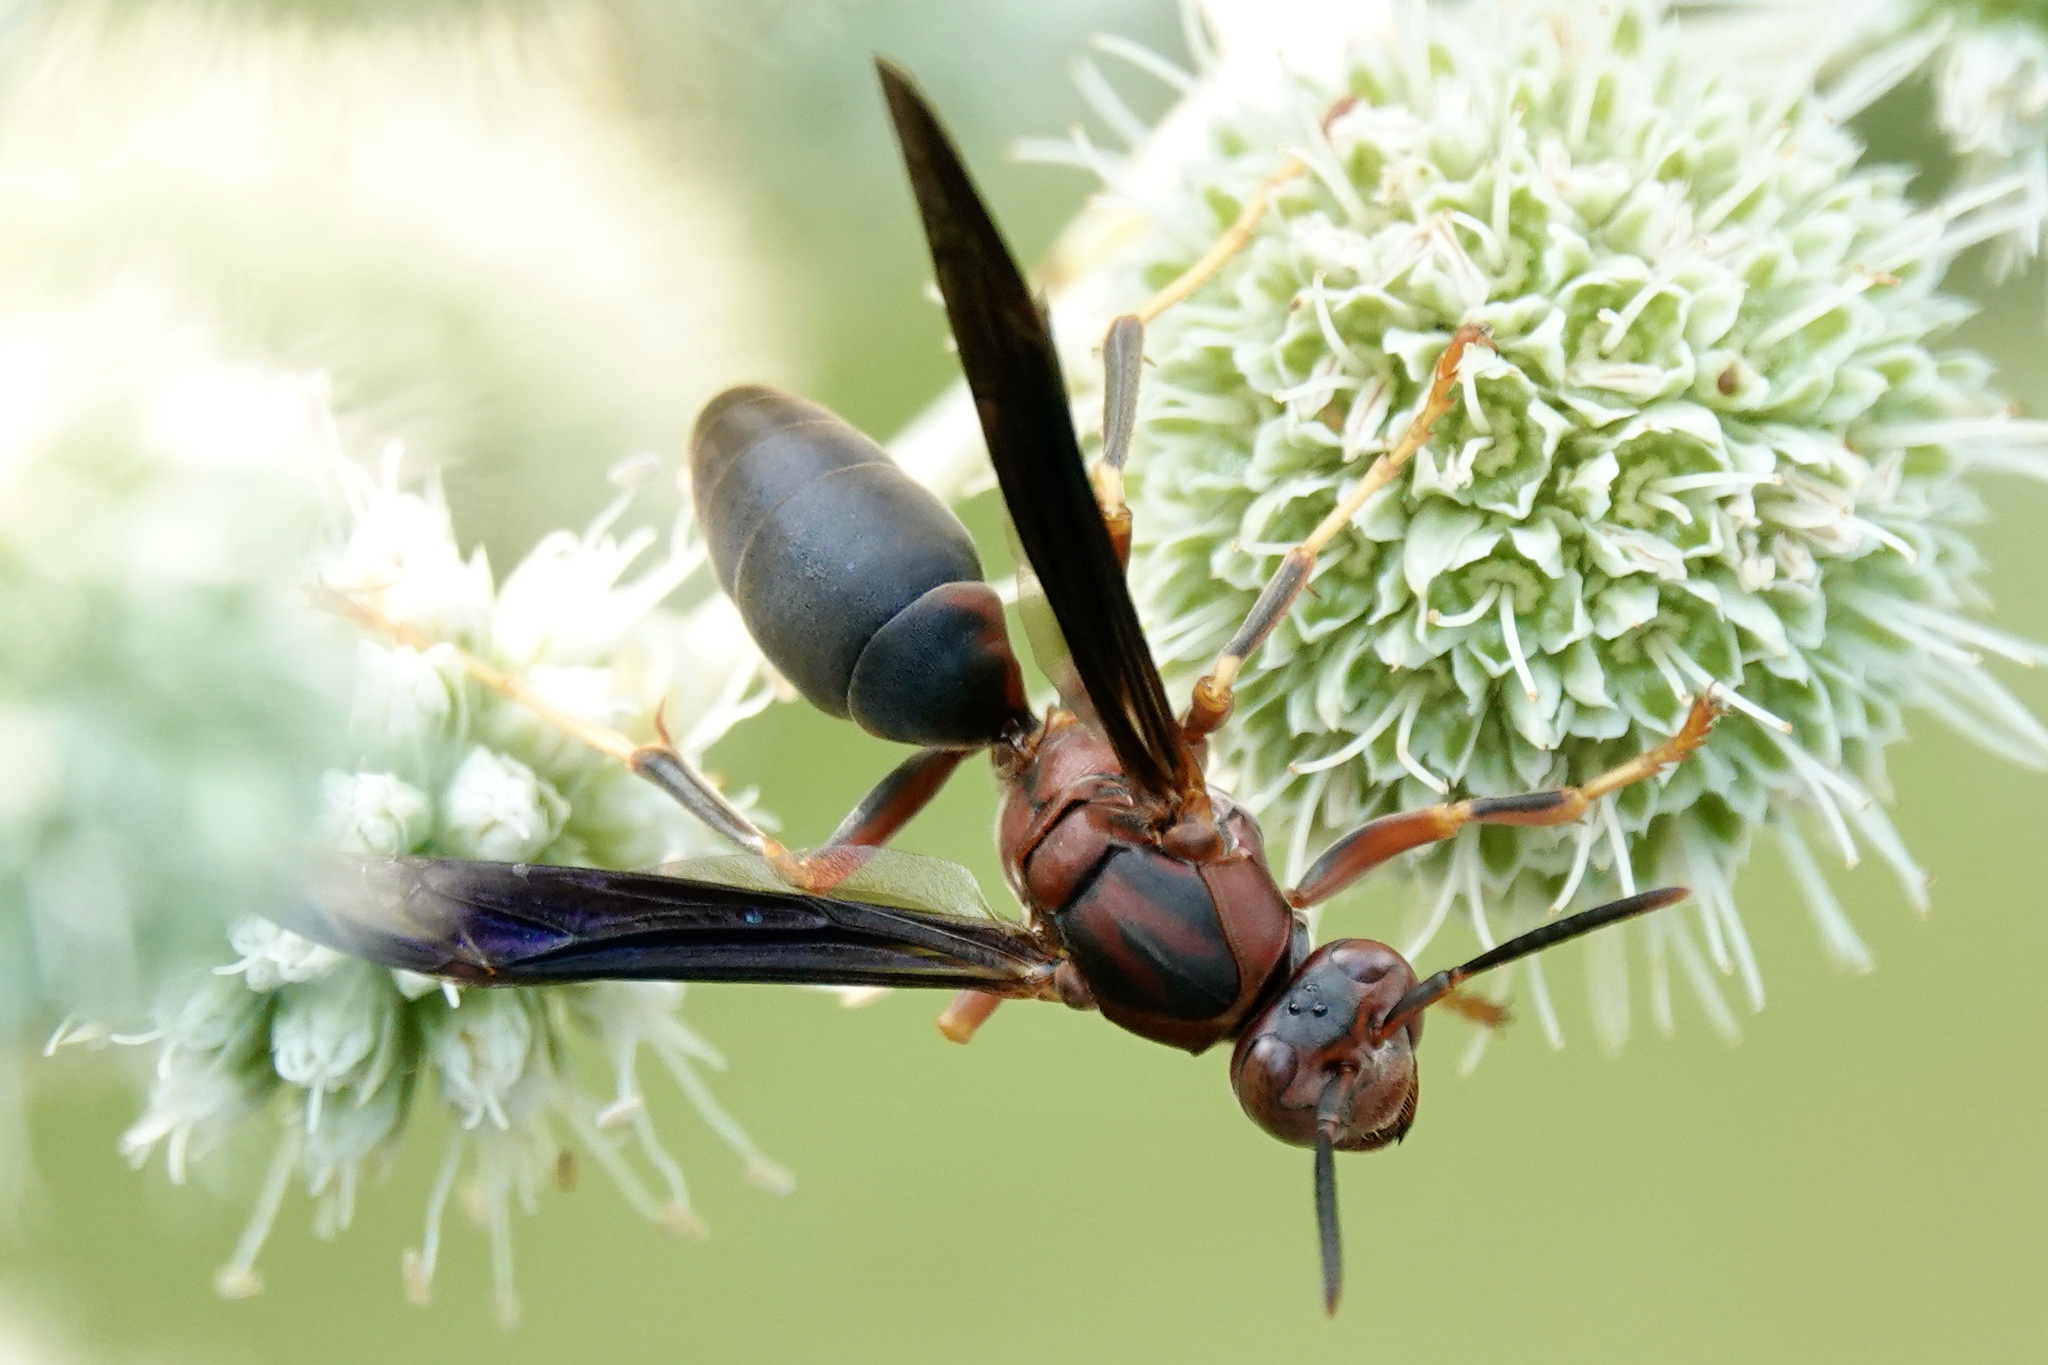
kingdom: Animalia
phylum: Arthropoda
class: Insecta
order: Hymenoptera
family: Eumenidae
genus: Polistes
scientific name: Polistes metricus
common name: Metric paper wasp
